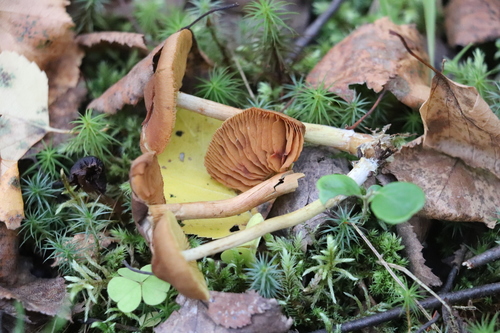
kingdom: Fungi
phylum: Basidiomycota
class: Agaricomycetes
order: Agaricales
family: Cortinariaceae
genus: Cortinarius
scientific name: Cortinarius cinnamomeus
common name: Cinnamon webcap
